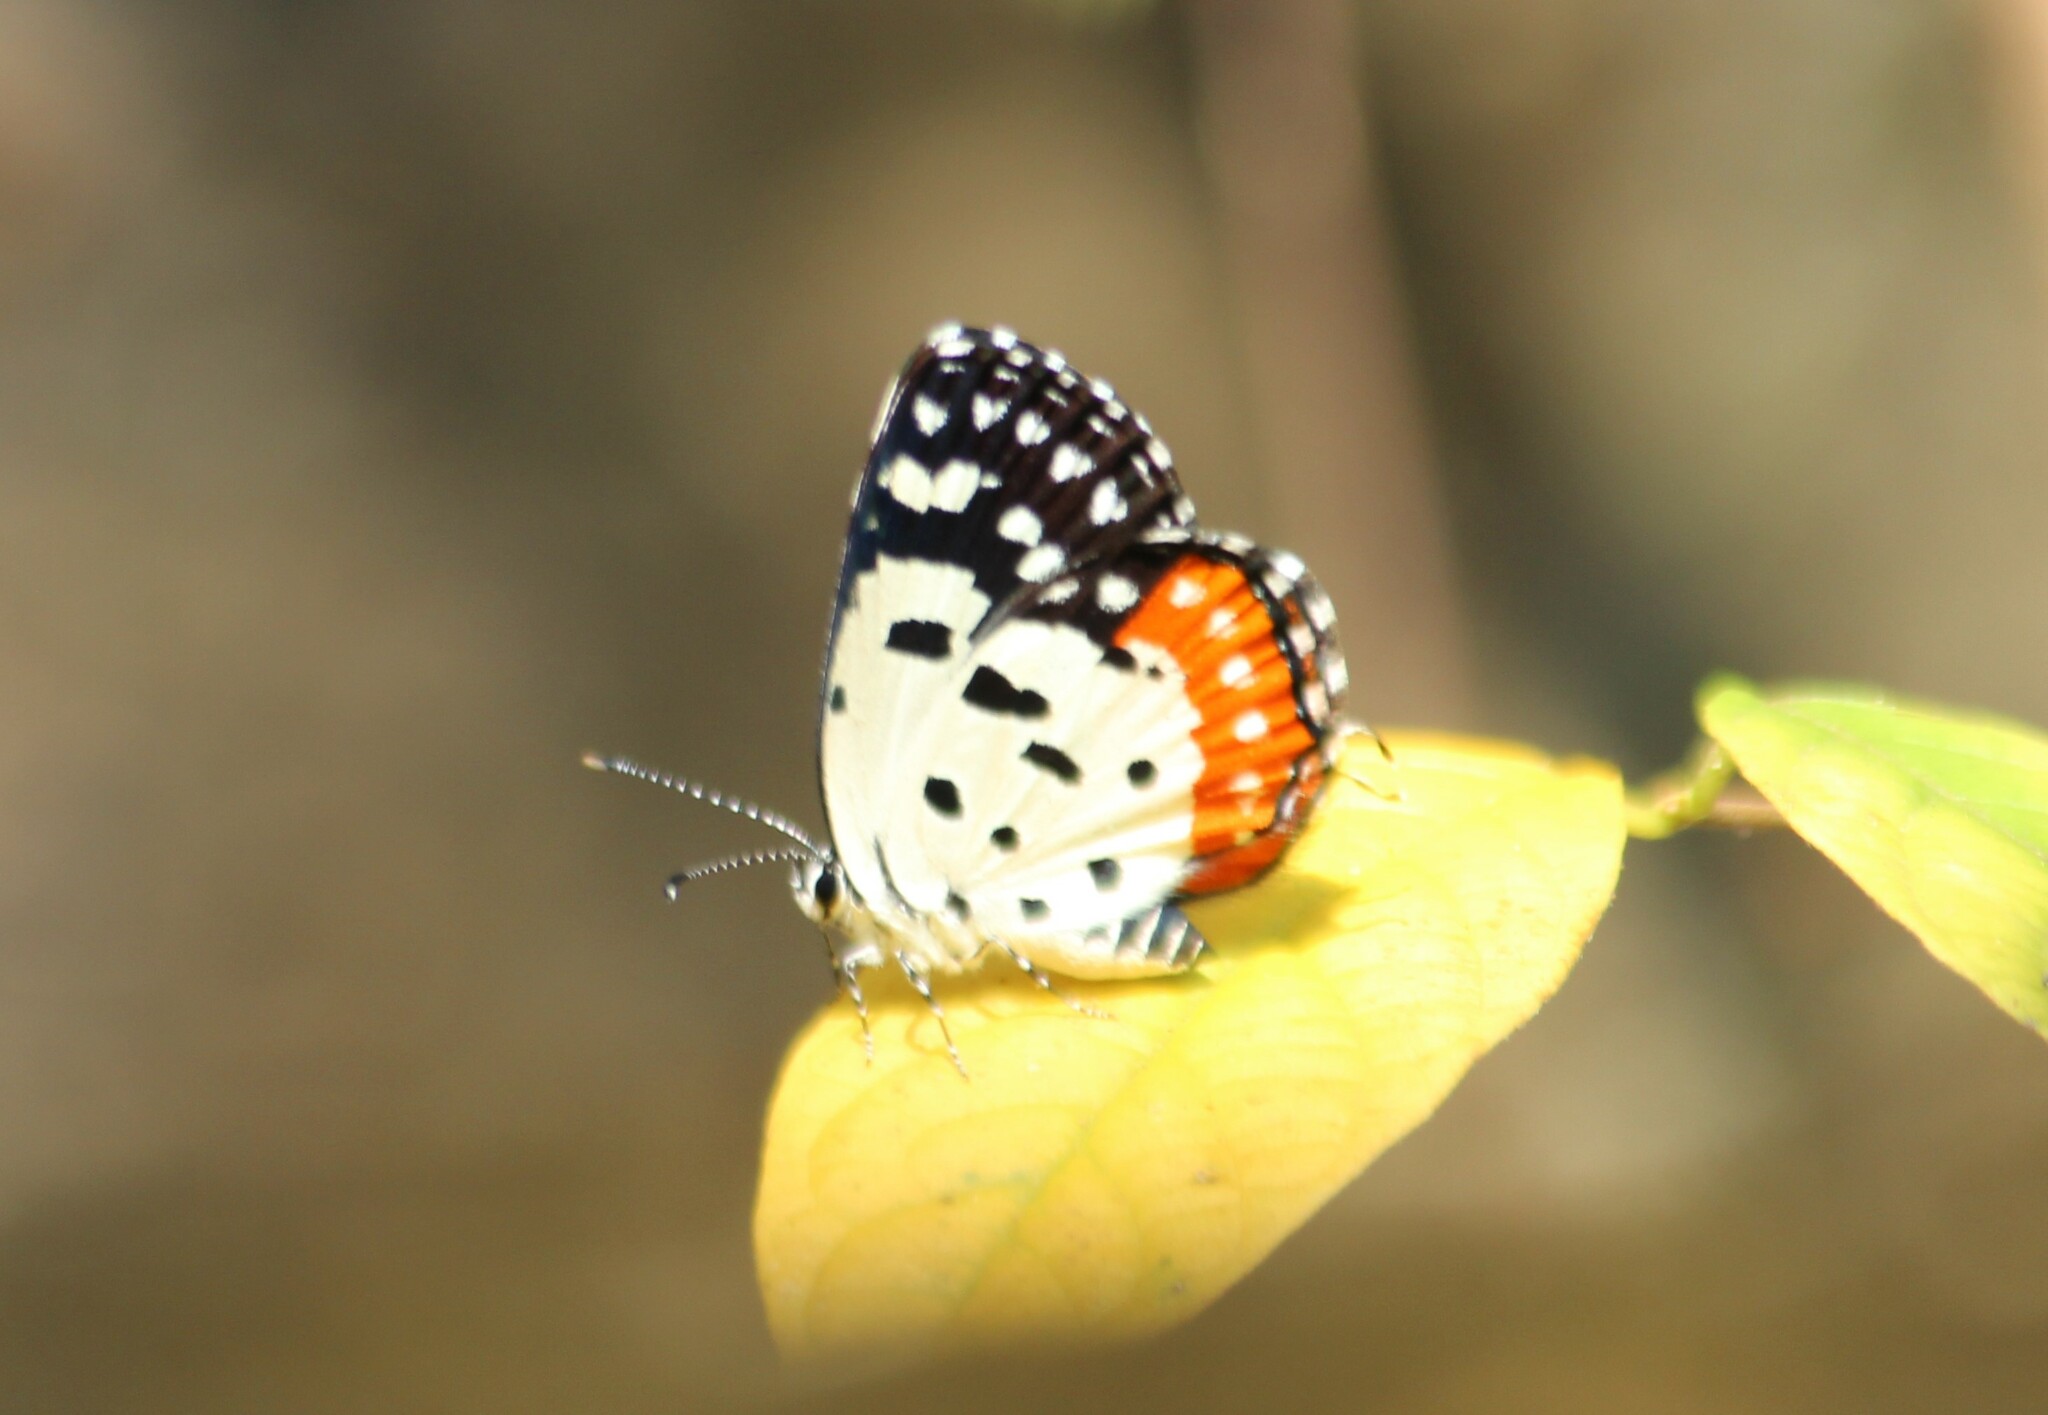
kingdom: Animalia
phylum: Arthropoda
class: Insecta
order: Lepidoptera
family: Lycaenidae
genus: Talicada
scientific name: Talicada nyseus
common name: Red pierrot
